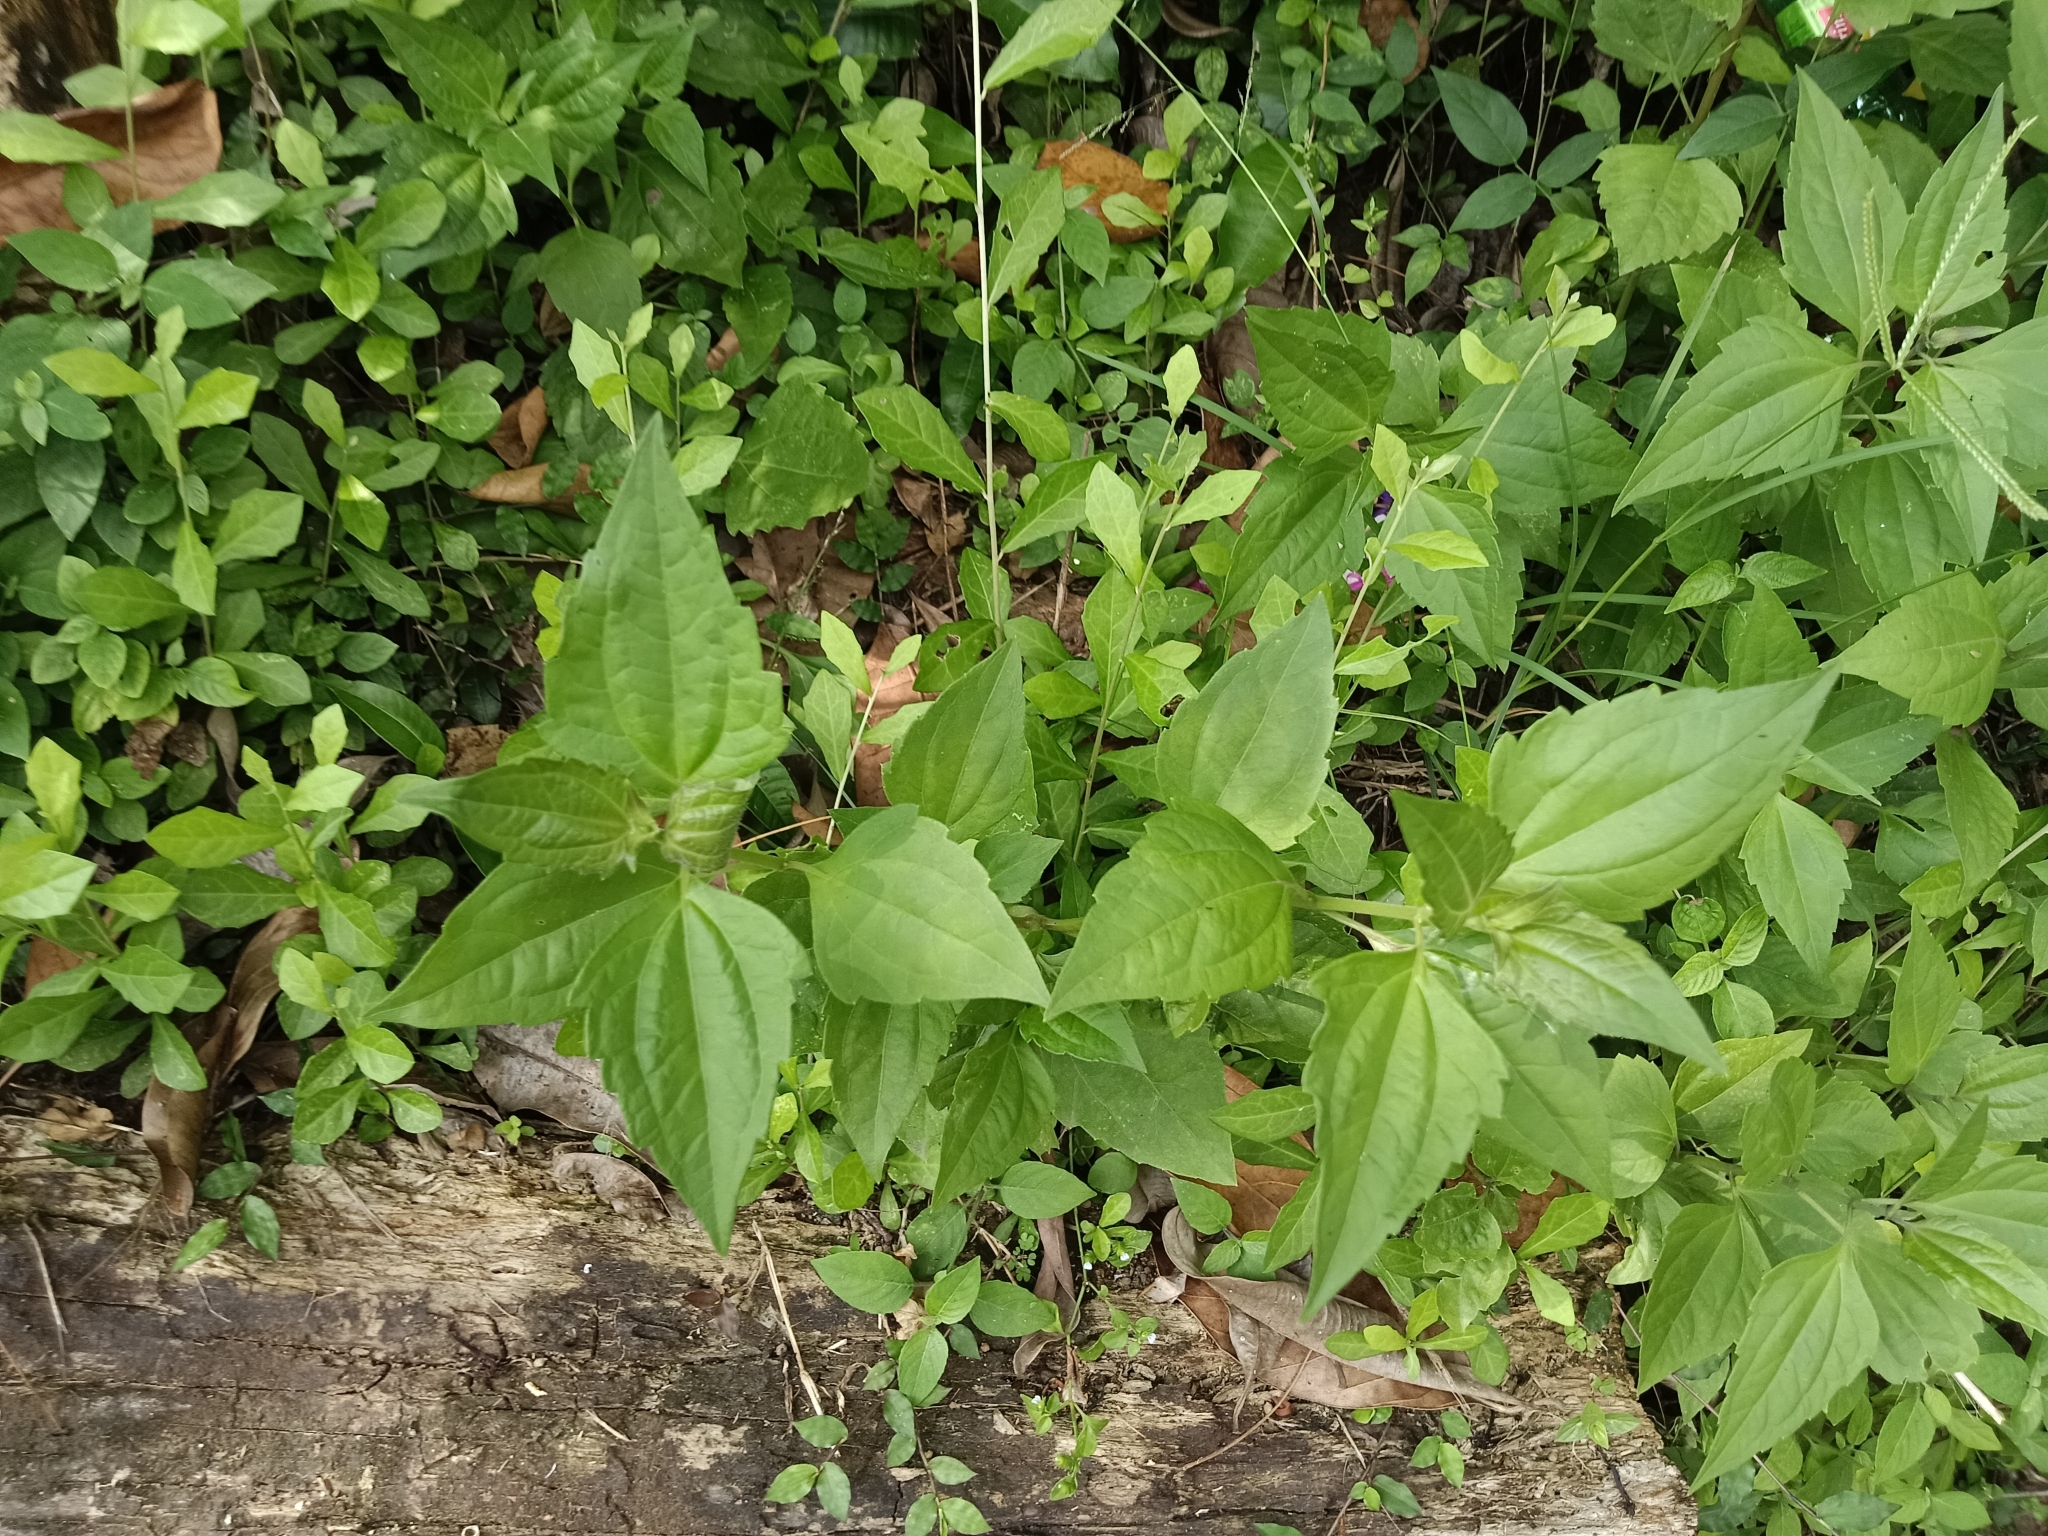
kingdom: Plantae
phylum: Tracheophyta
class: Magnoliopsida
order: Asterales
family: Asteraceae
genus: Chromolaena
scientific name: Chromolaena odorata
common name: Siamweed
